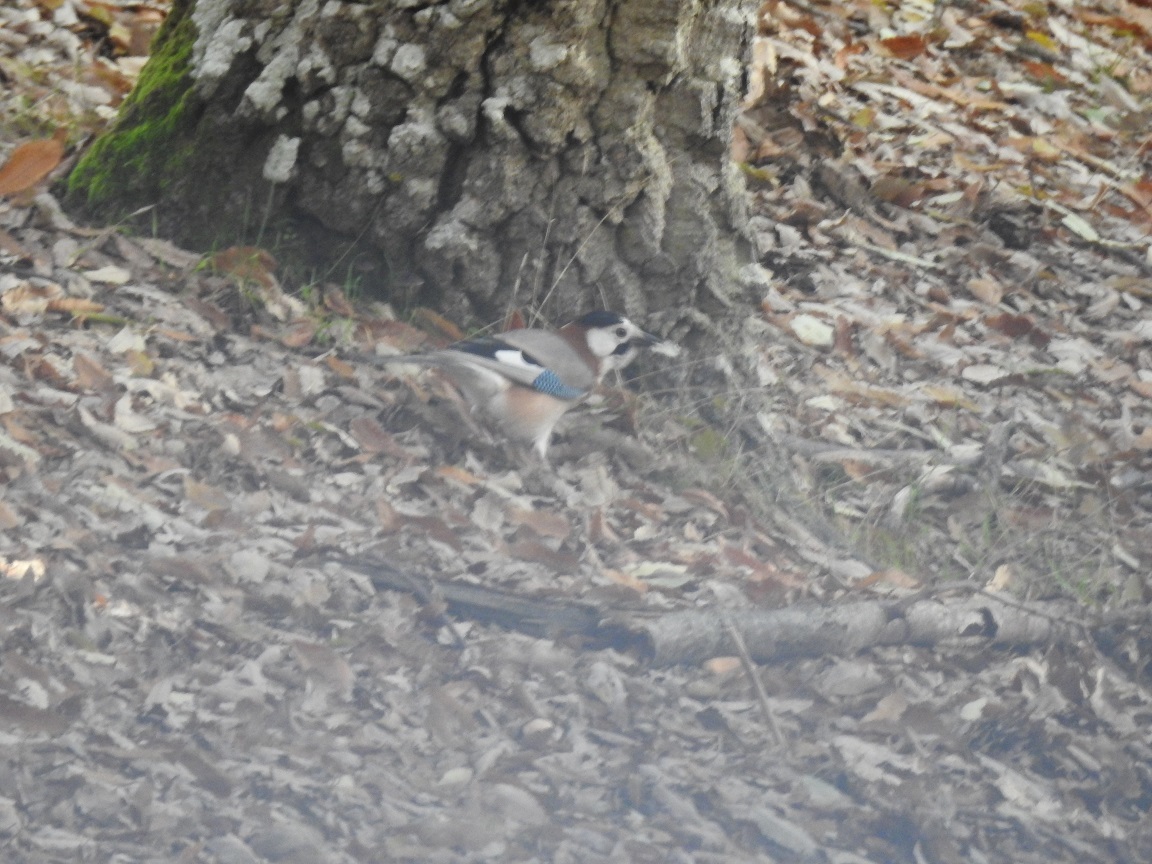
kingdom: Animalia
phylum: Chordata
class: Aves
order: Passeriformes
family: Corvidae
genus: Garrulus
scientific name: Garrulus glandarius
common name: Eurasian jay
